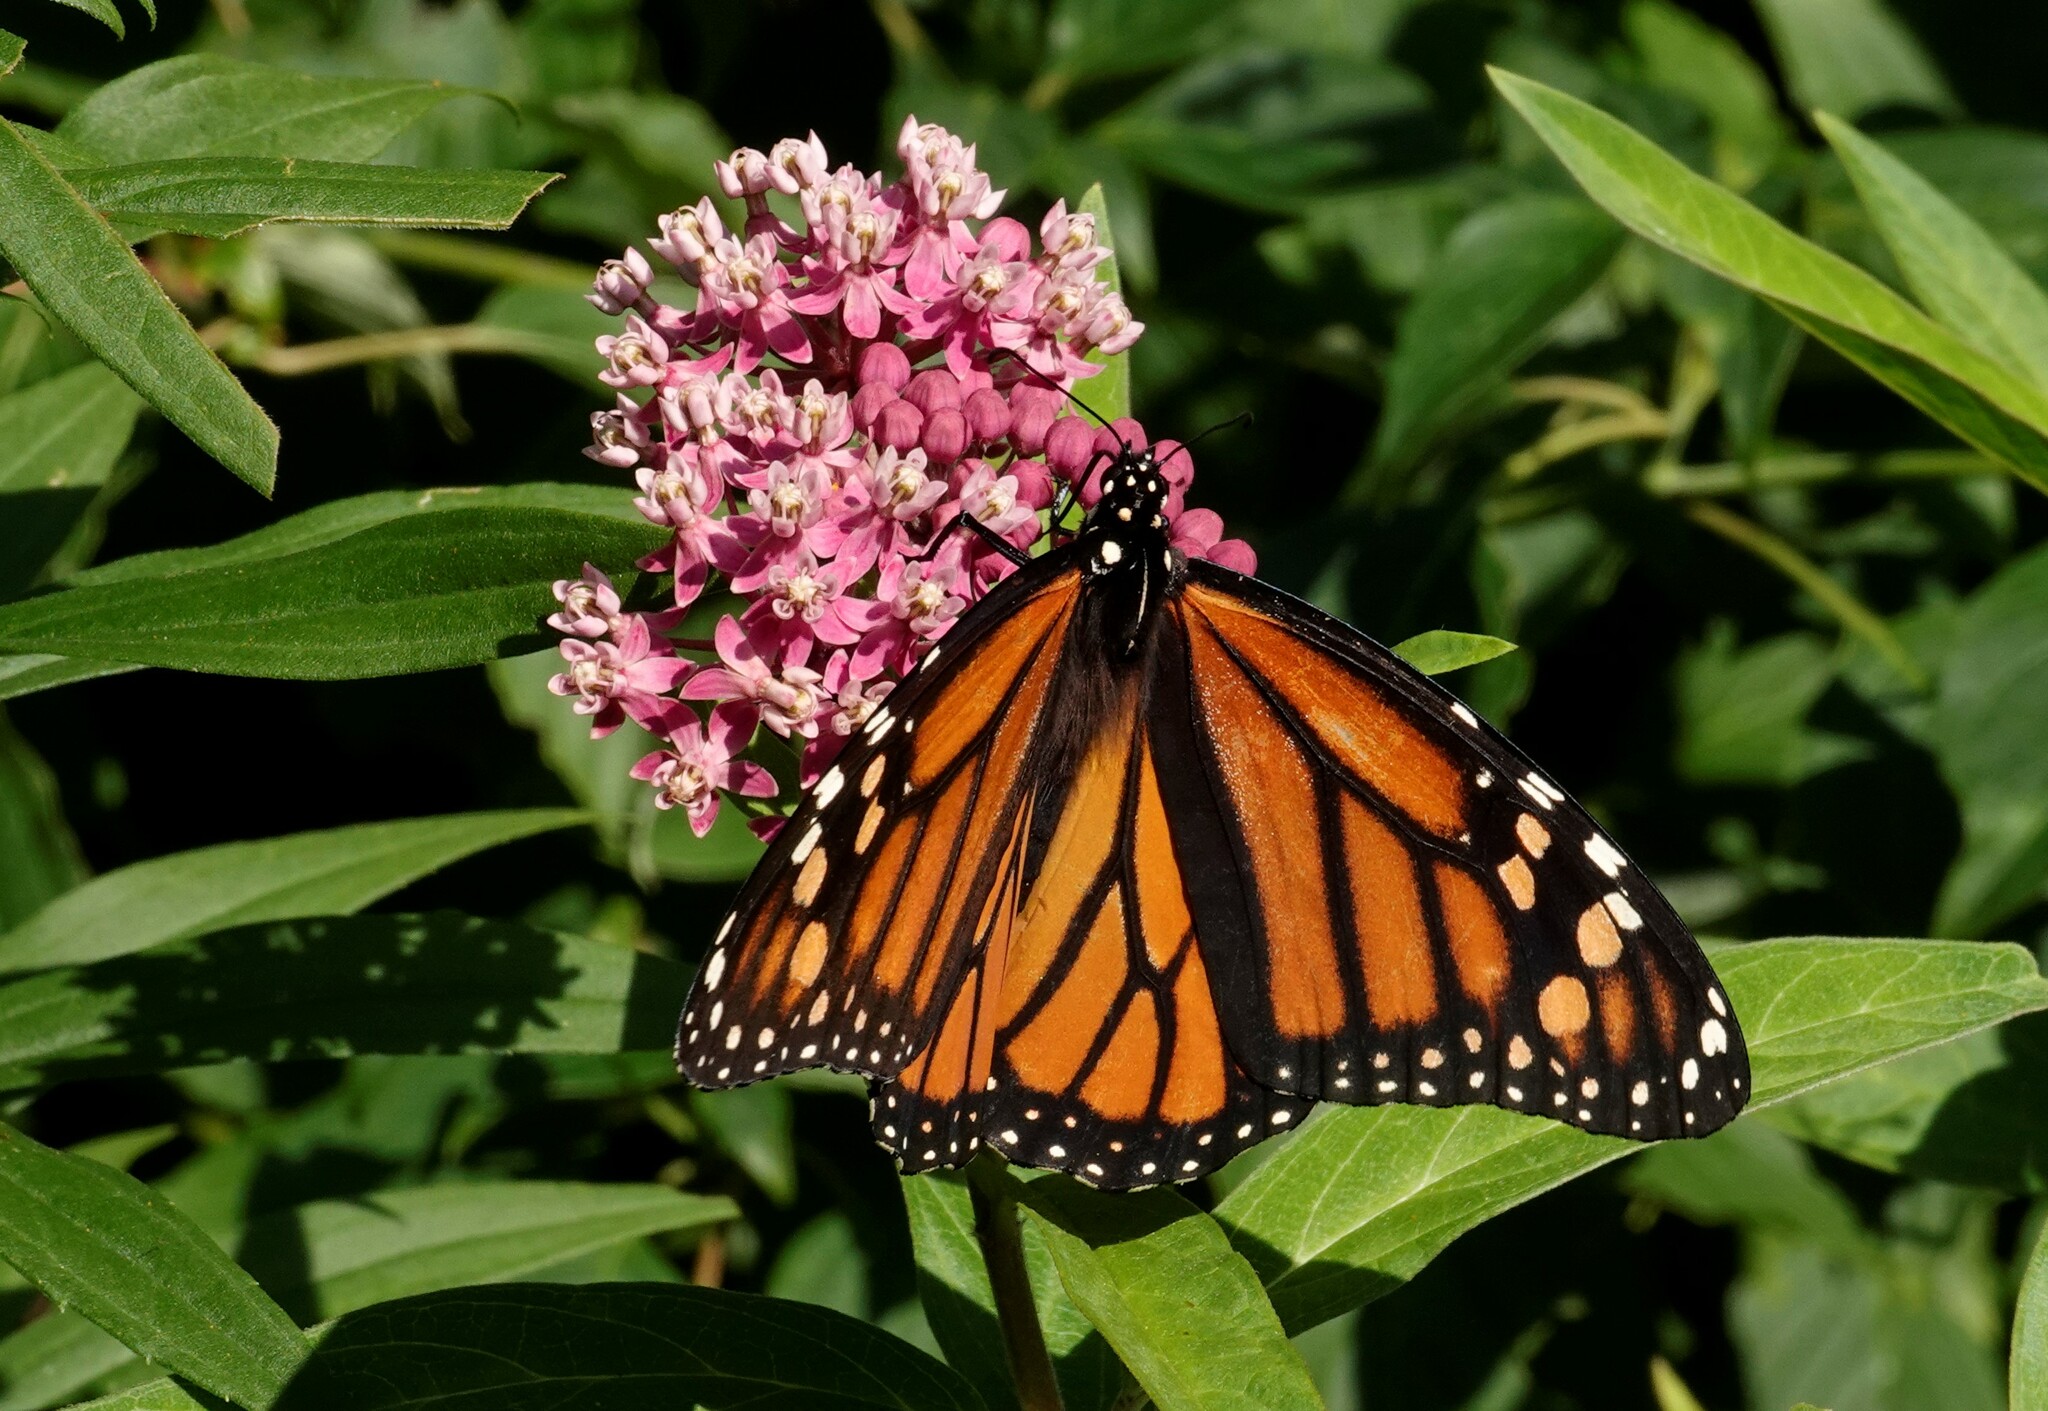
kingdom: Animalia
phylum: Arthropoda
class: Insecta
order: Lepidoptera
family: Nymphalidae
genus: Danaus
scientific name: Danaus plexippus
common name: Monarch
